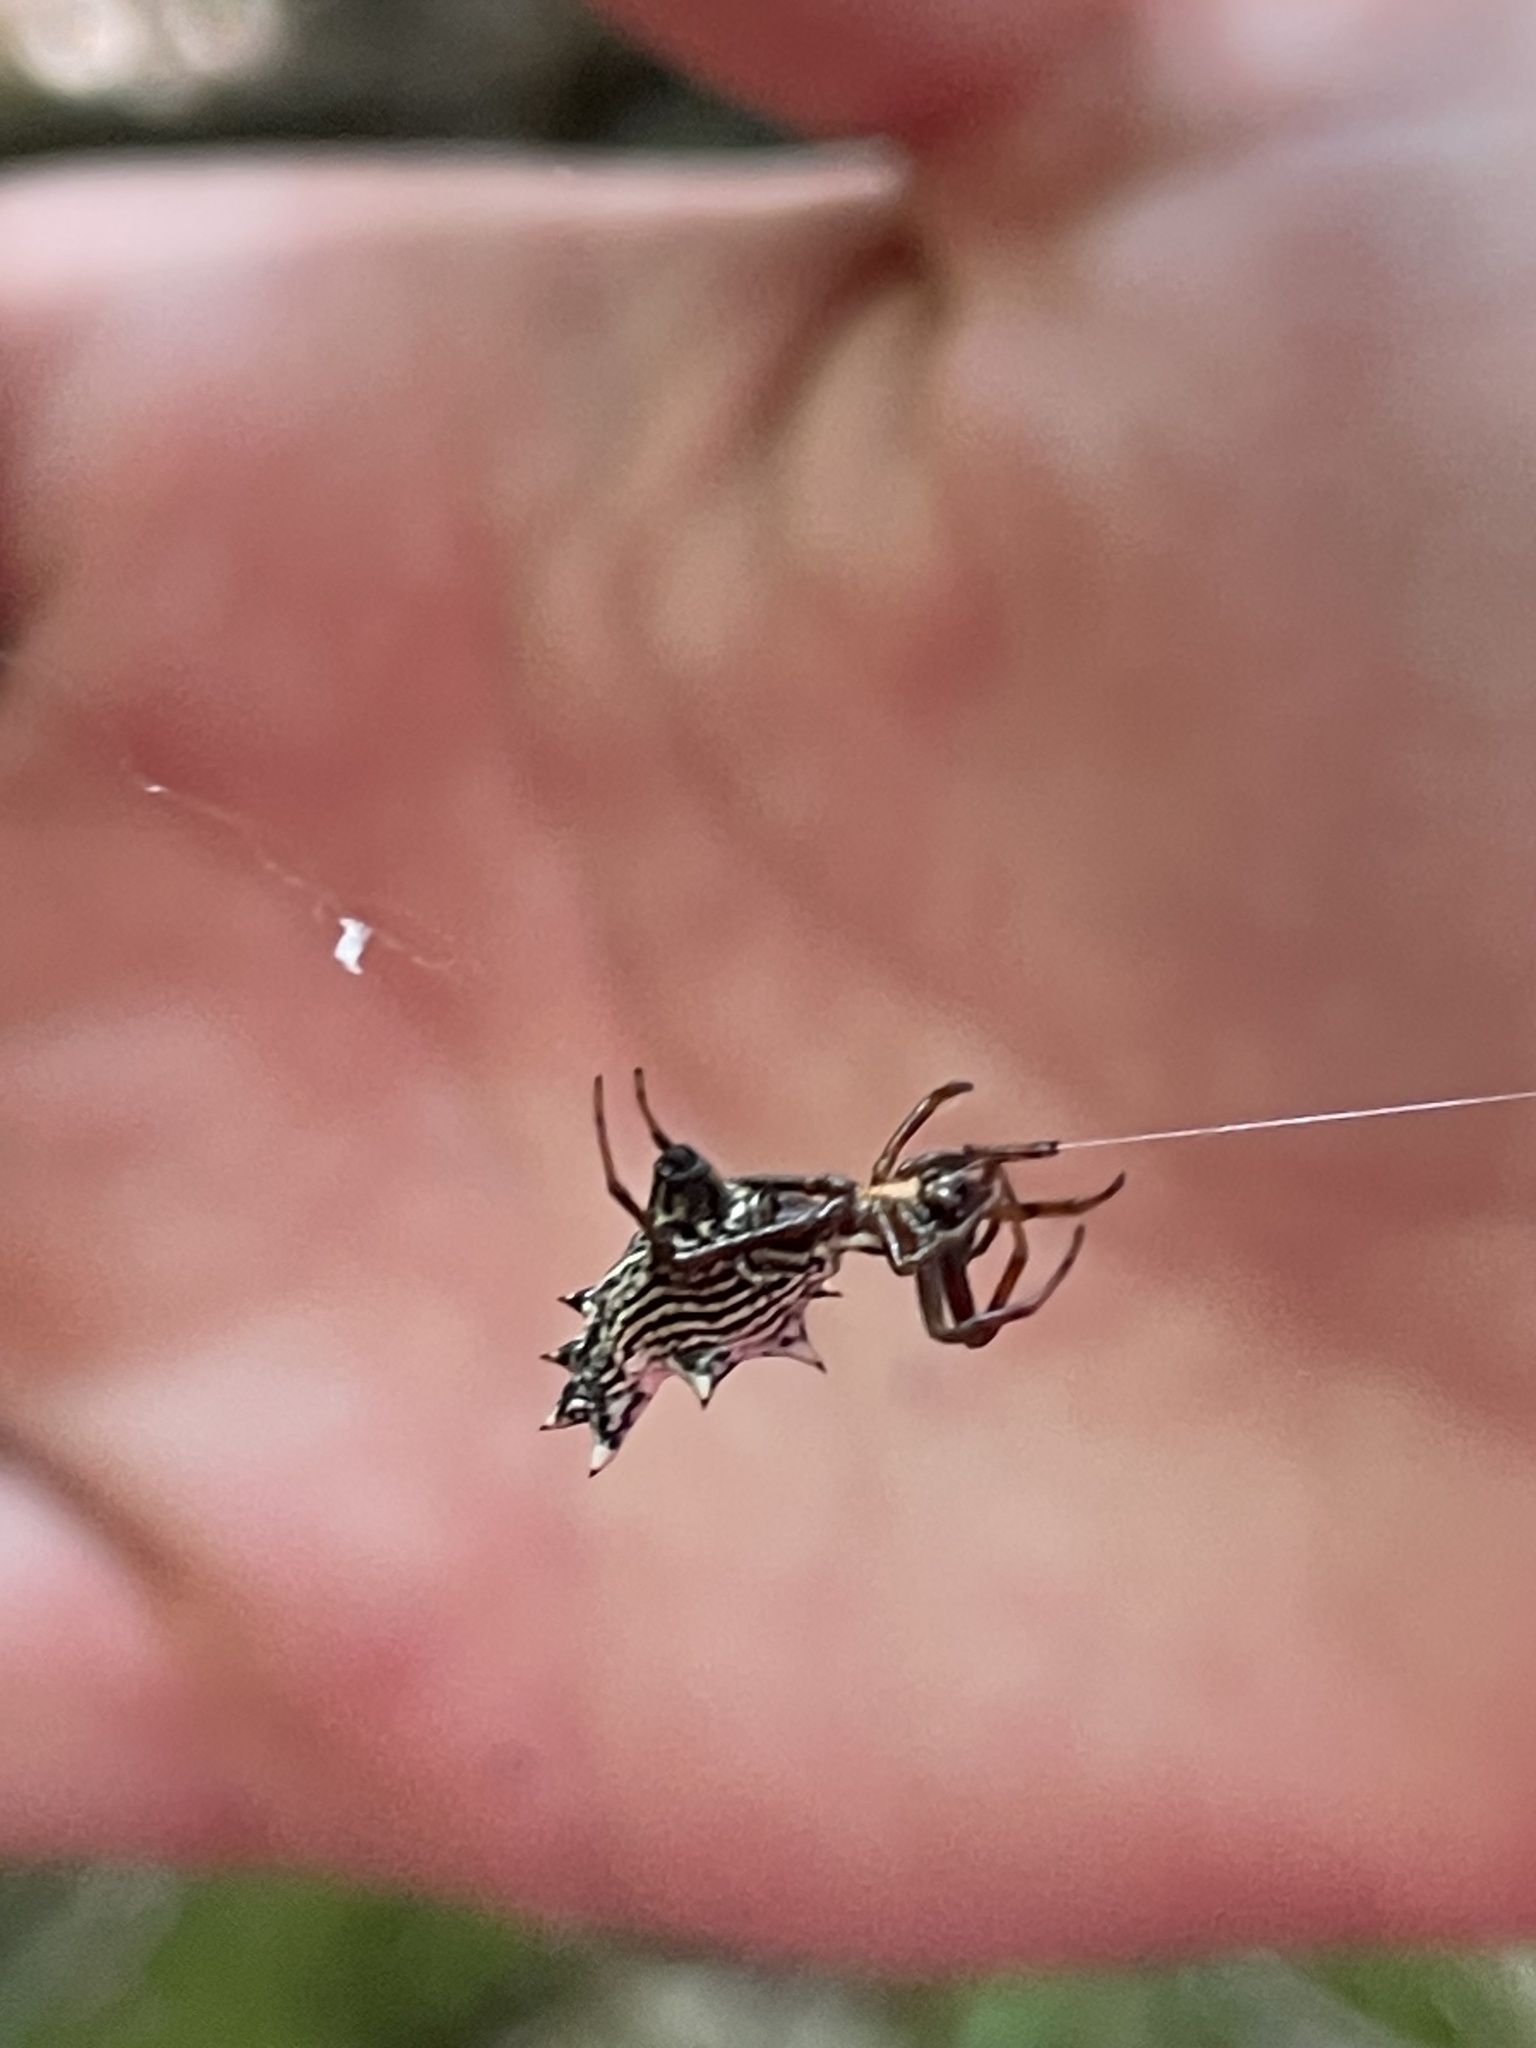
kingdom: Animalia
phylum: Arthropoda
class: Arachnida
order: Araneae
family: Araneidae
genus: Micrathena
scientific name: Micrathena gracilis
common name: Orb weavers
